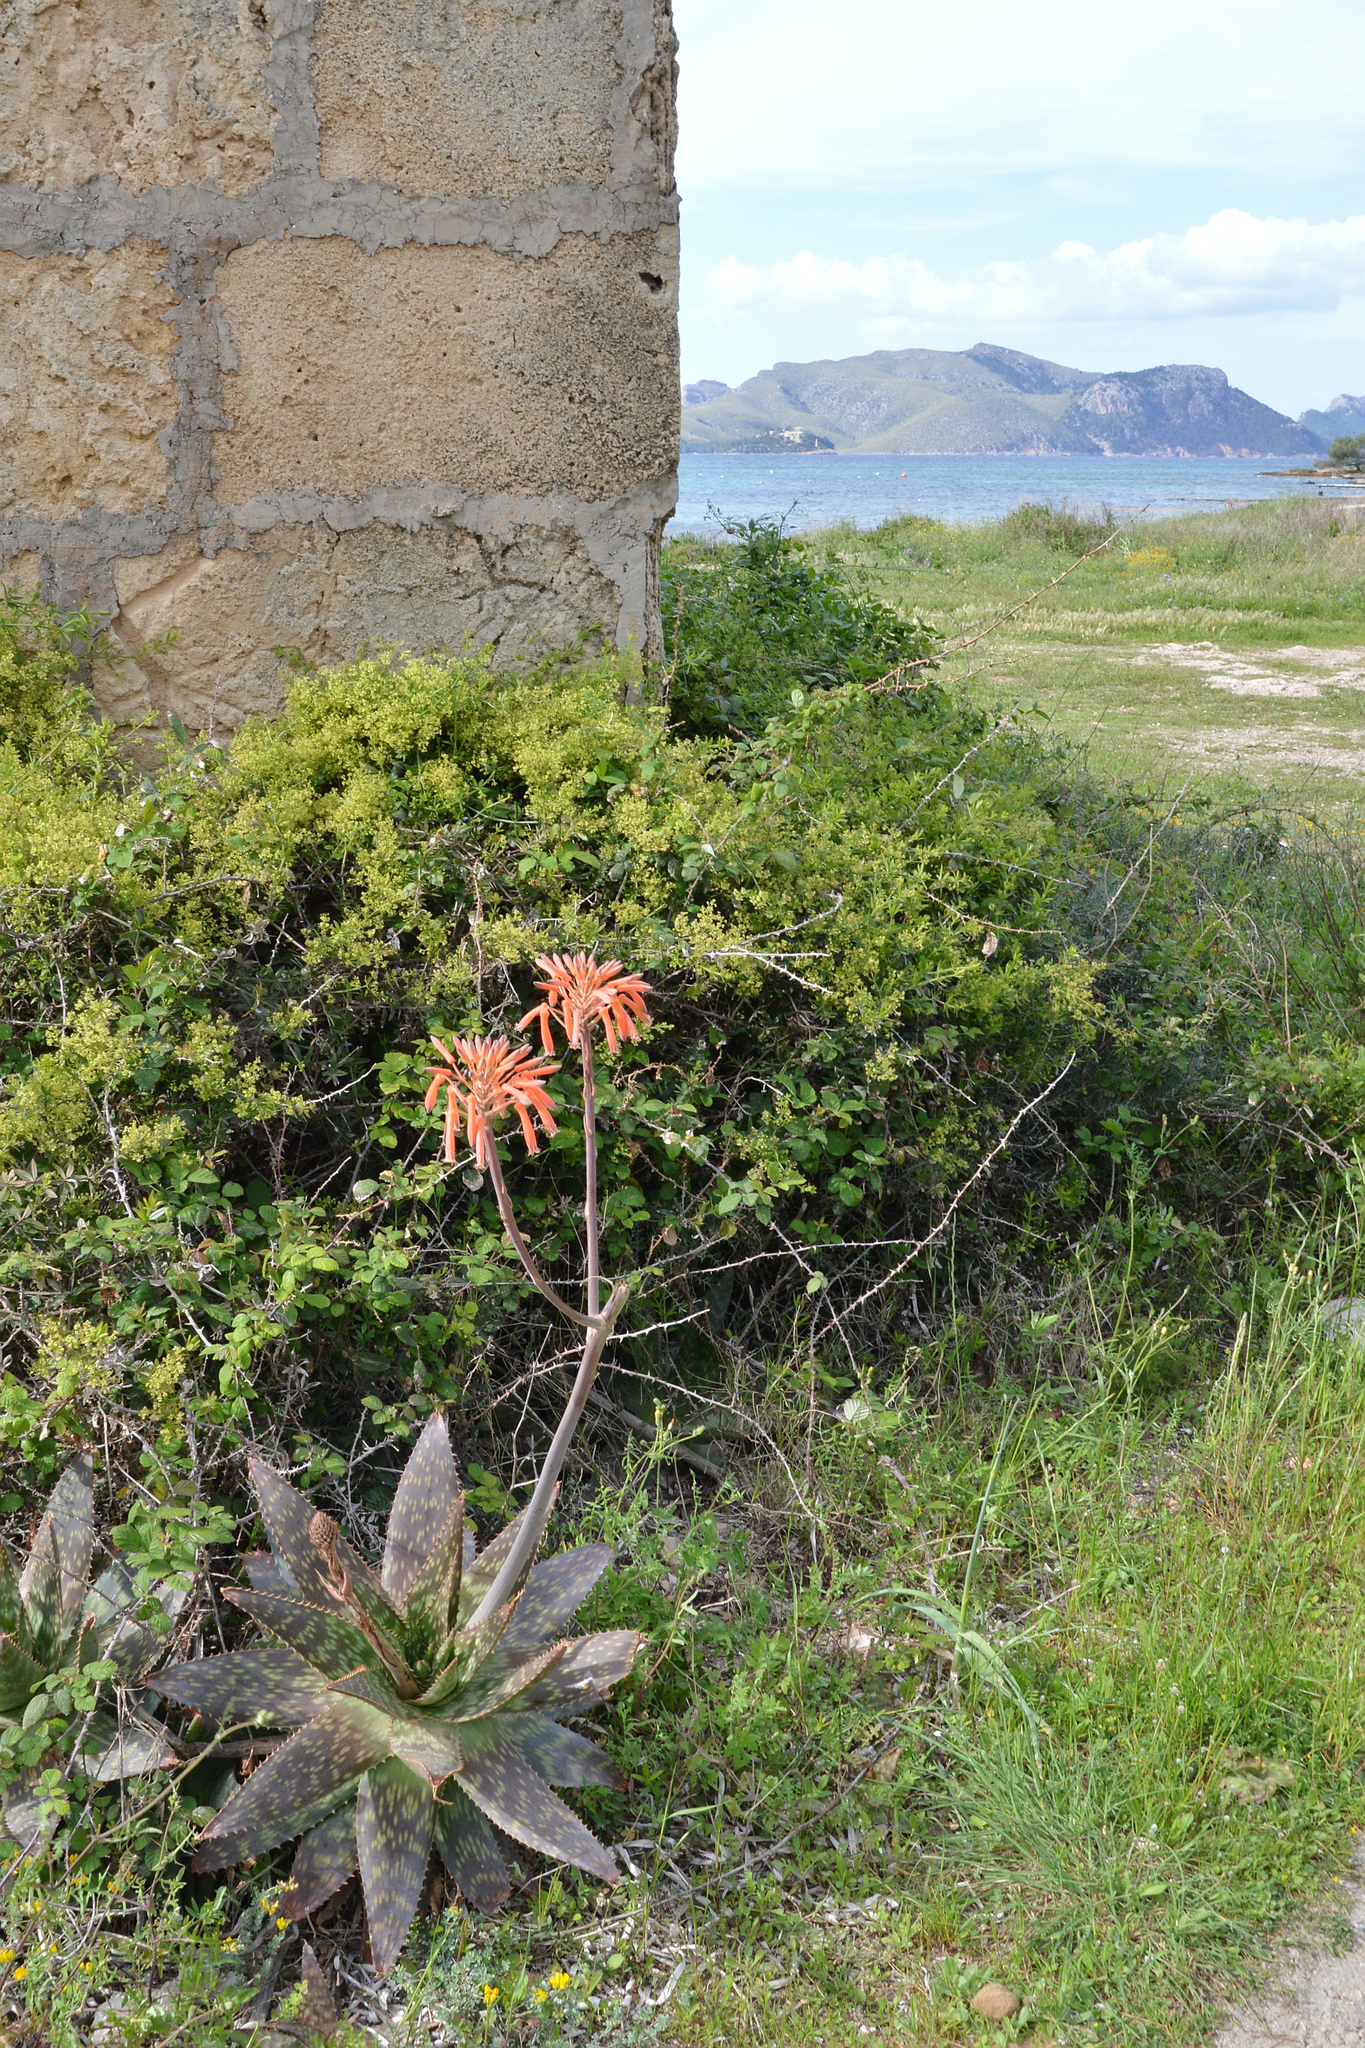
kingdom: Plantae
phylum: Tracheophyta
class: Liliopsida
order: Asparagales
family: Asphodelaceae
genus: Aloe
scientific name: Aloe maculata
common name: Broadleaf aloe
